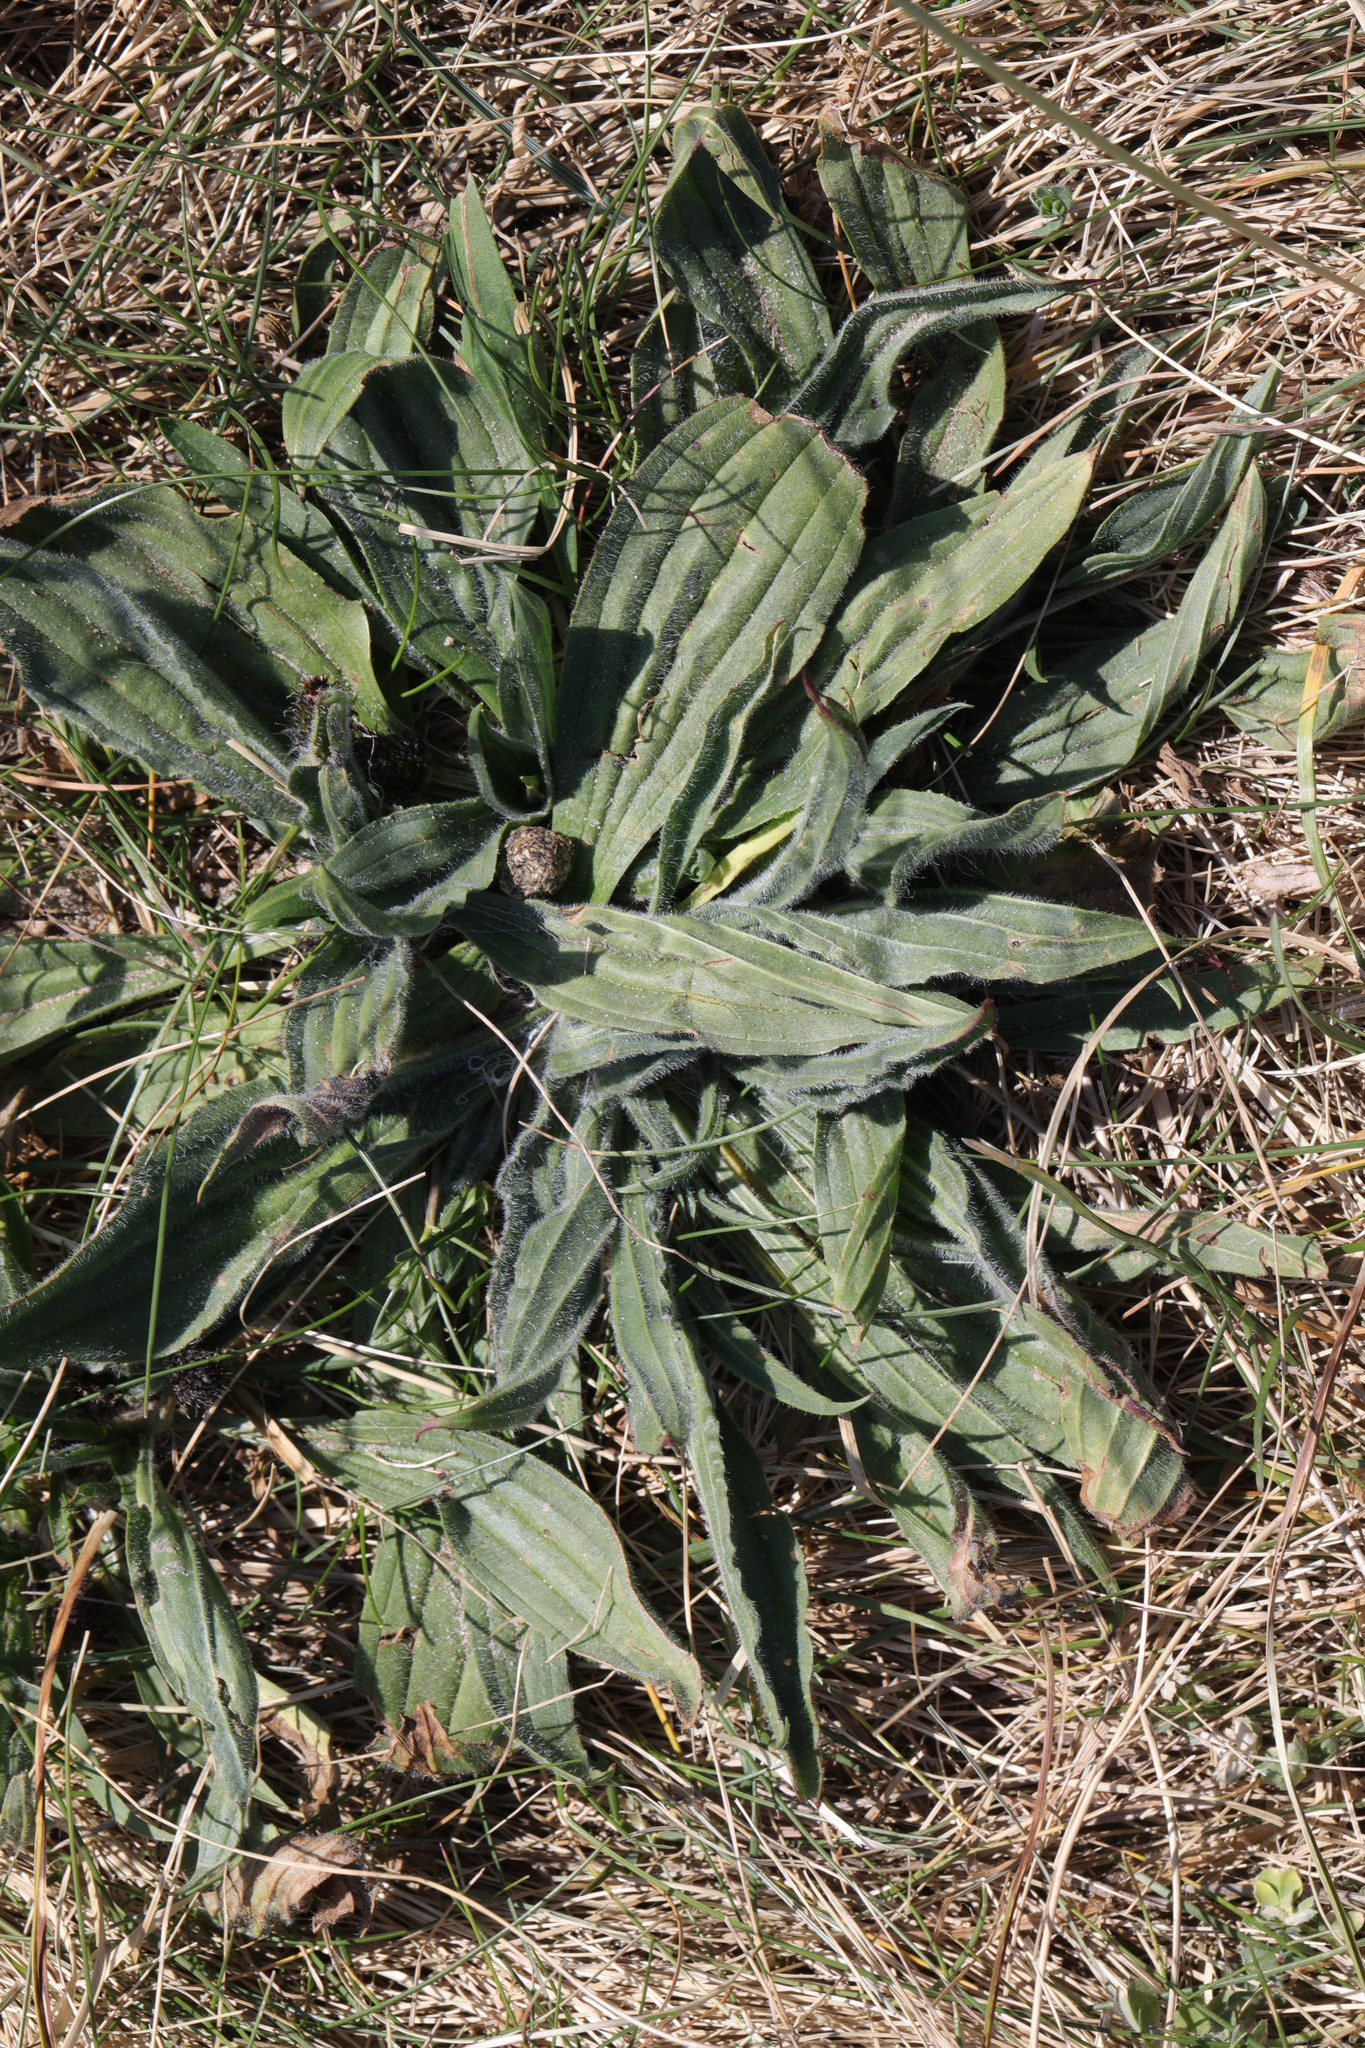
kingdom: Plantae
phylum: Tracheophyta
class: Magnoliopsida
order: Lamiales
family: Plantaginaceae
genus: Plantago
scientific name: Plantago lanceolata
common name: Ribwort plantain
